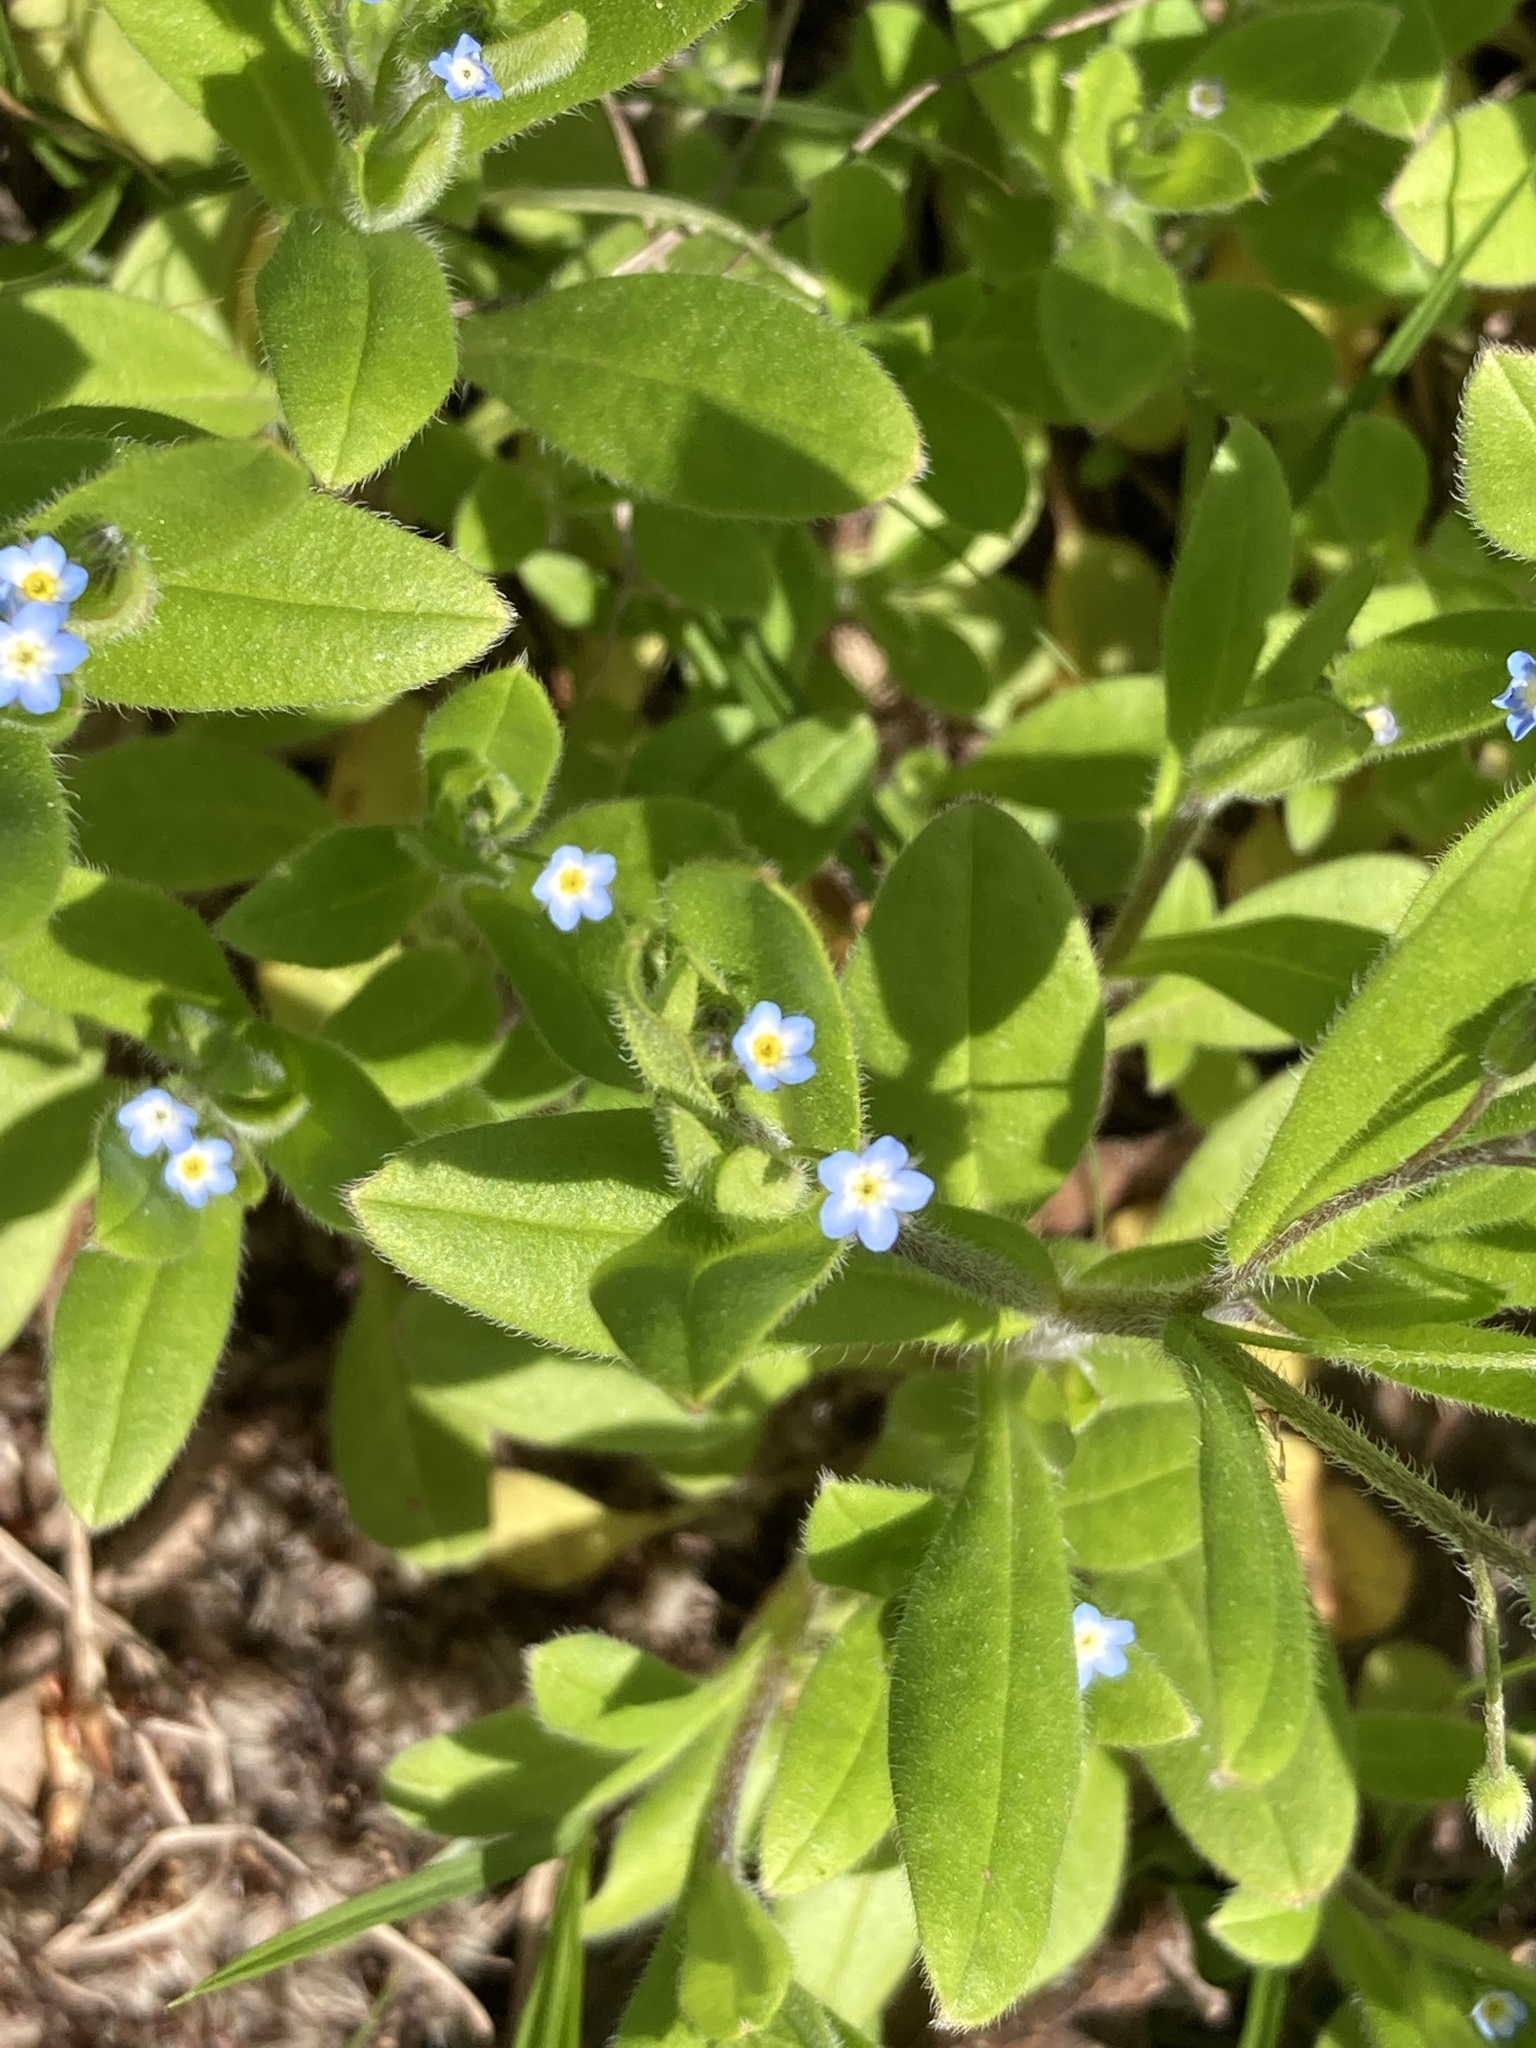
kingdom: Plantae
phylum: Tracheophyta
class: Magnoliopsida
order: Boraginales
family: Boraginaceae
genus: Myosotis
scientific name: Myosotis sparsiflora
